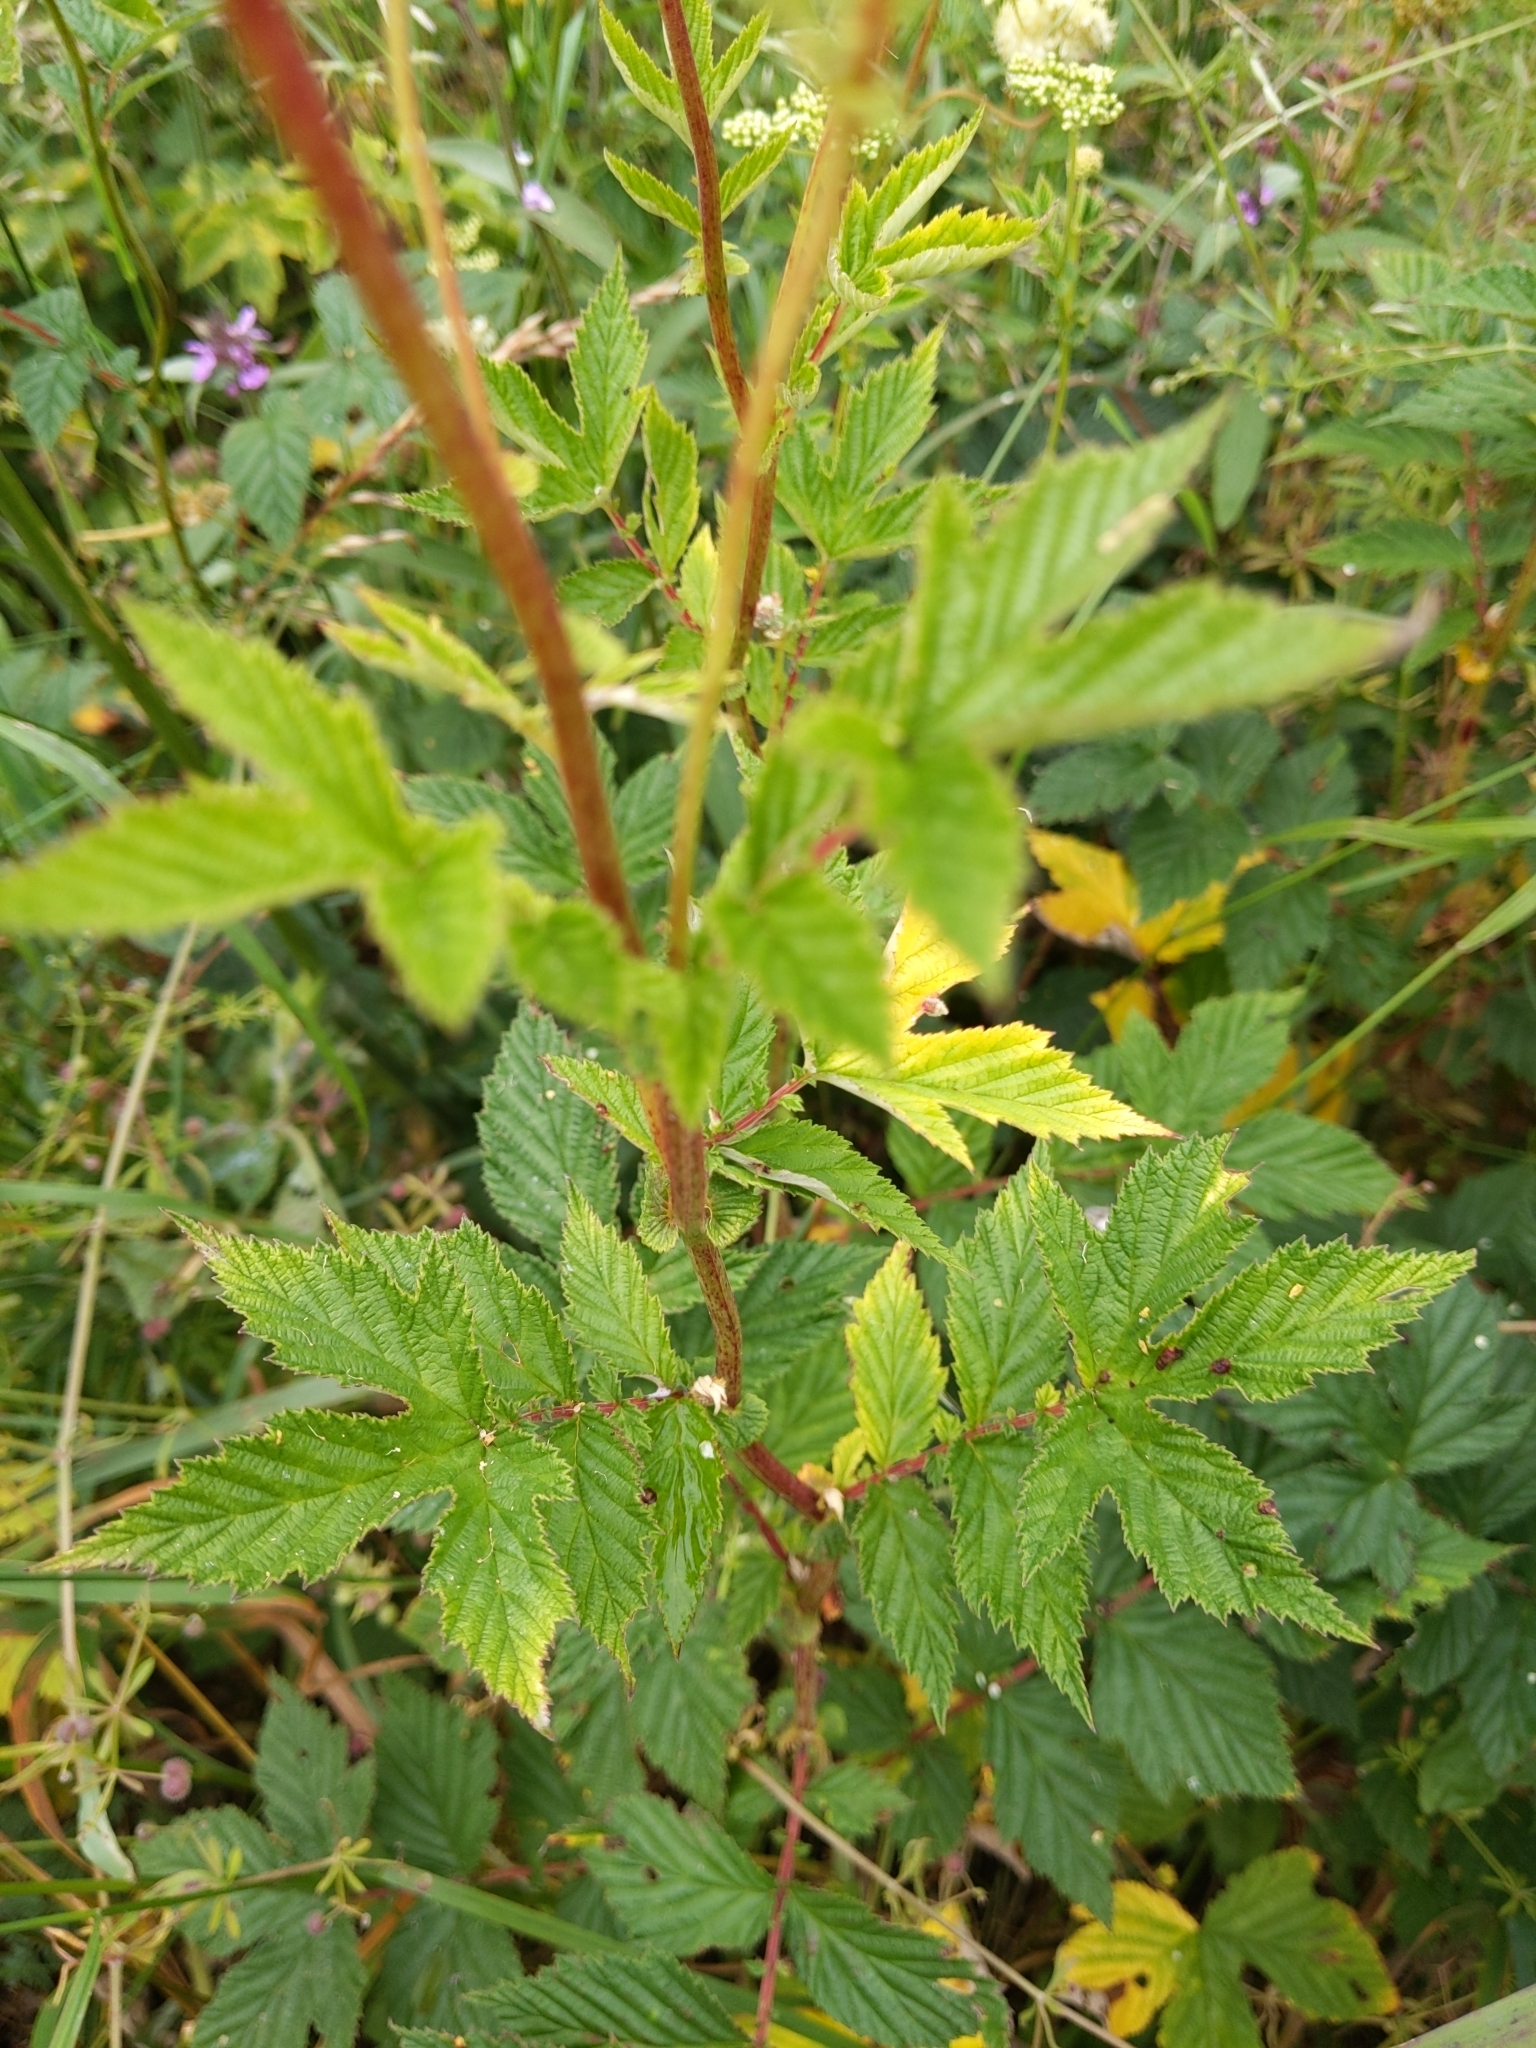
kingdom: Plantae
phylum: Tracheophyta
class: Magnoliopsida
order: Rosales
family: Rosaceae
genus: Filipendula
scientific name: Filipendula ulmaria
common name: Meadowsweet
